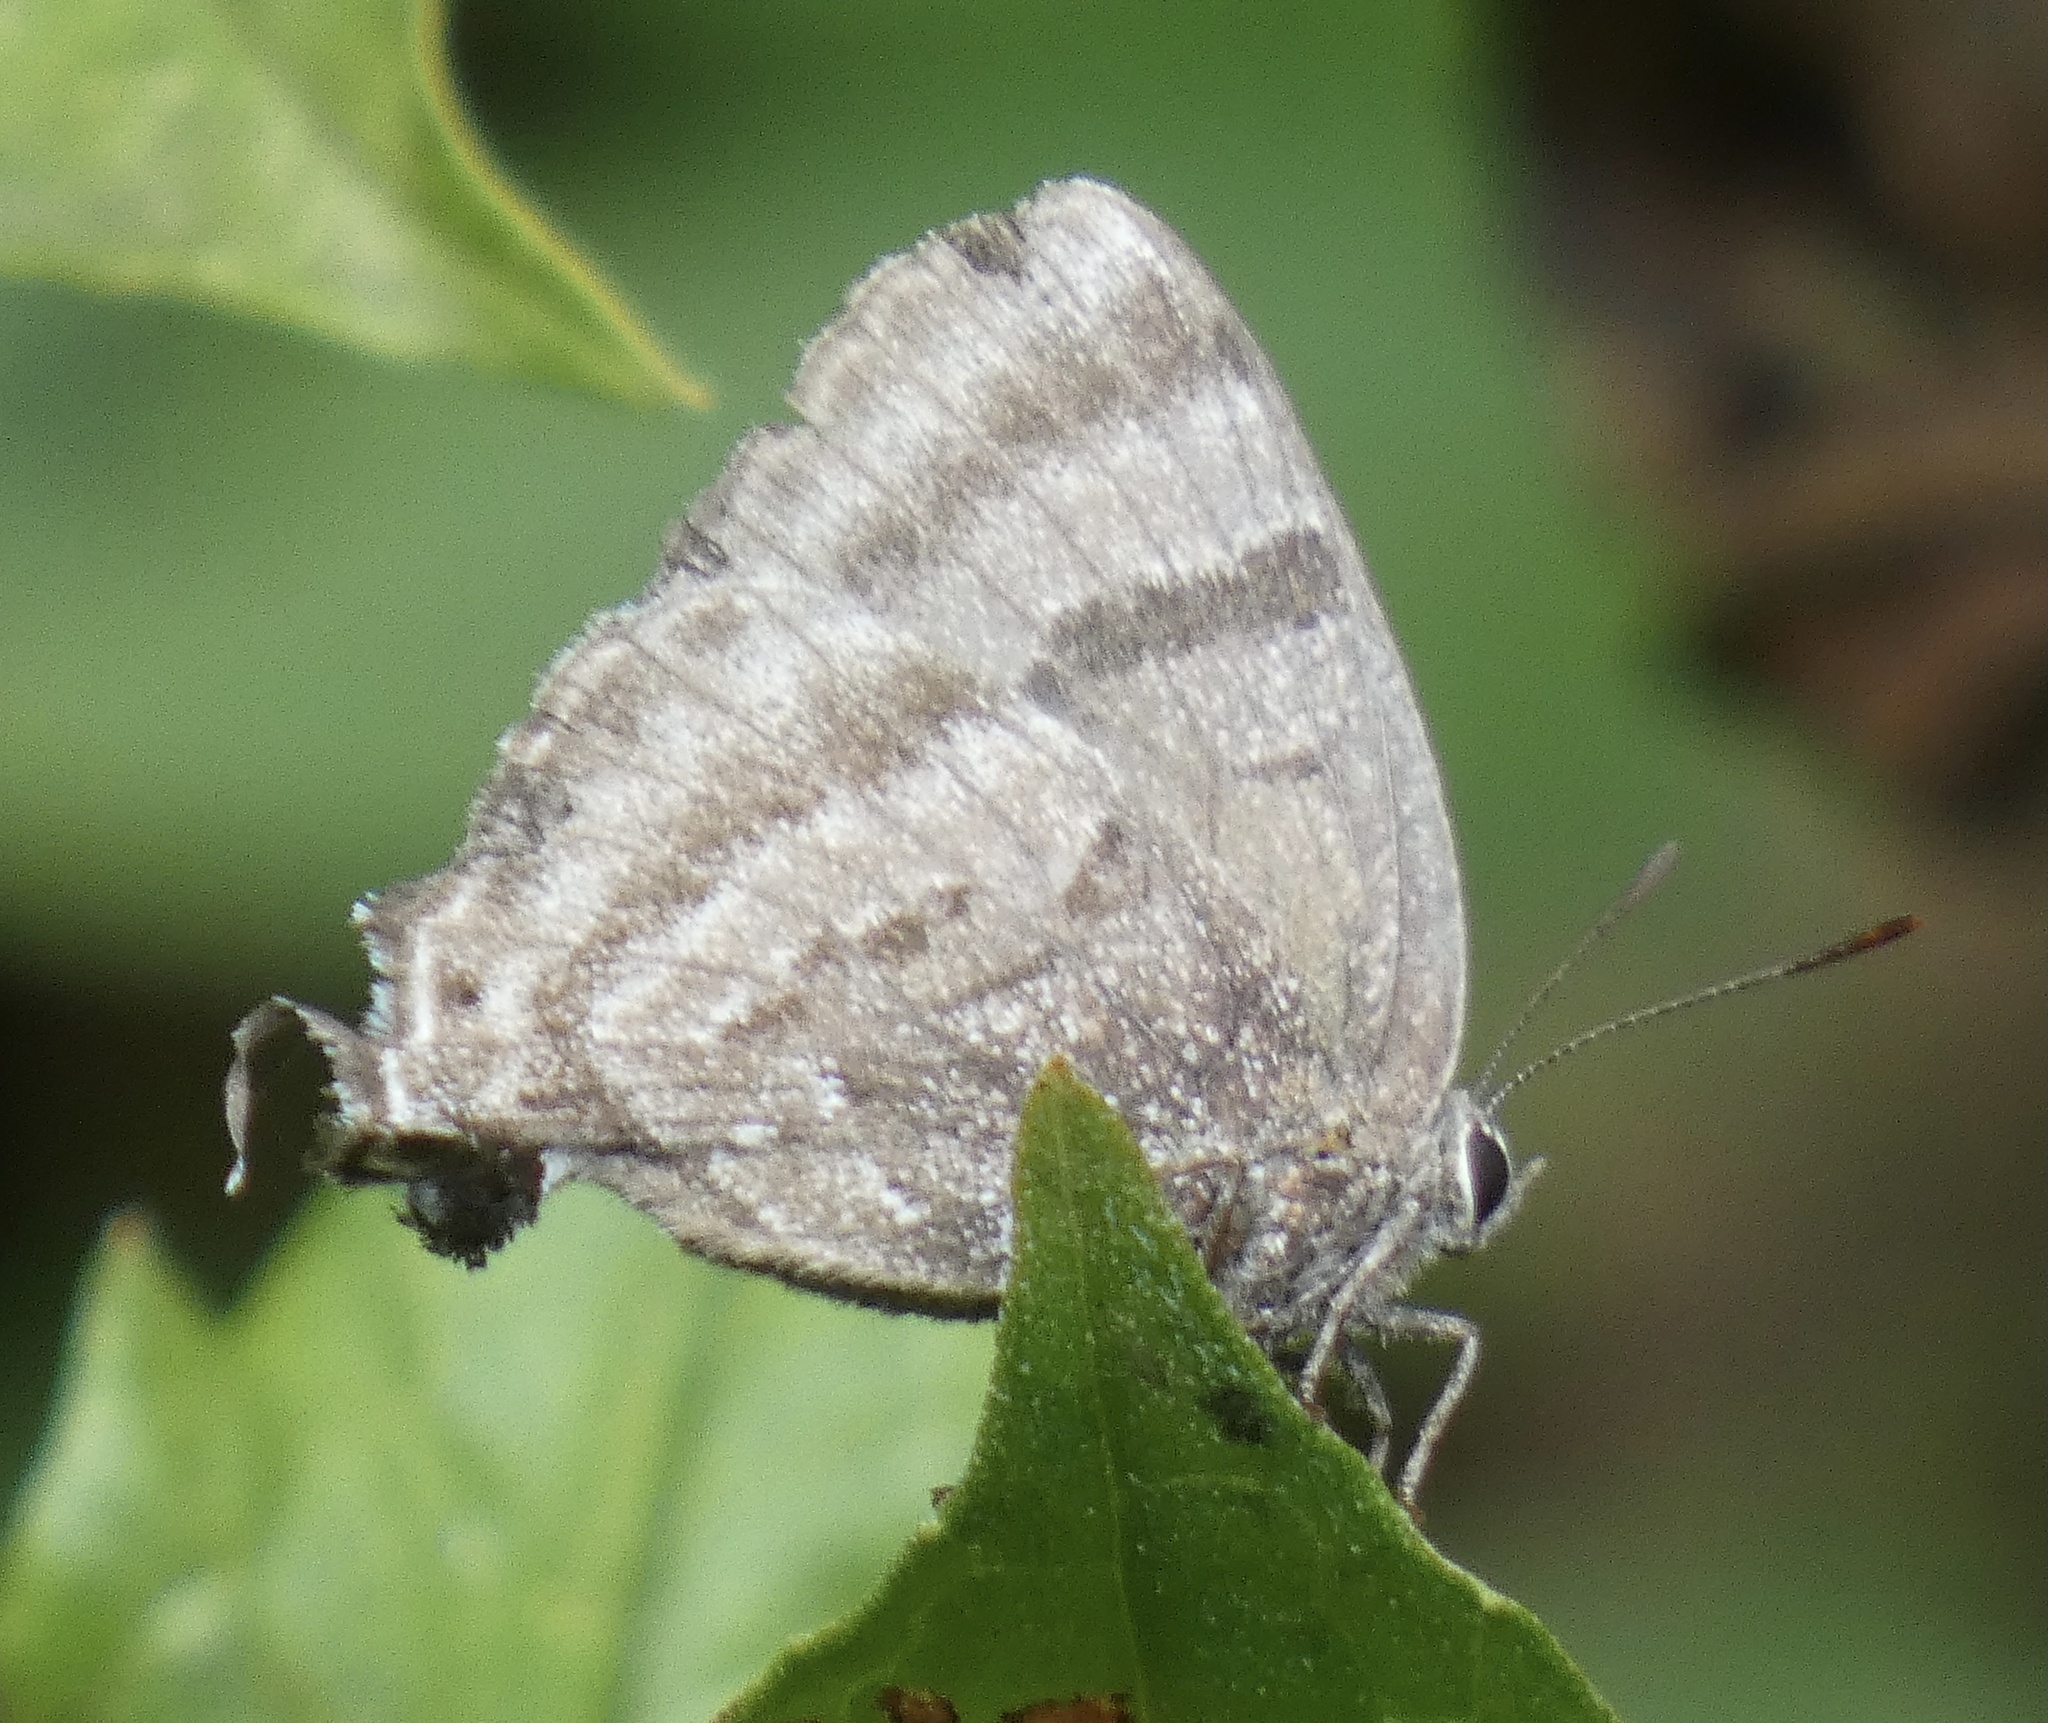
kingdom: Animalia
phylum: Arthropoda
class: Insecta
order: Lepidoptera
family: Lycaenidae
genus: Atlides
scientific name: Atlides
